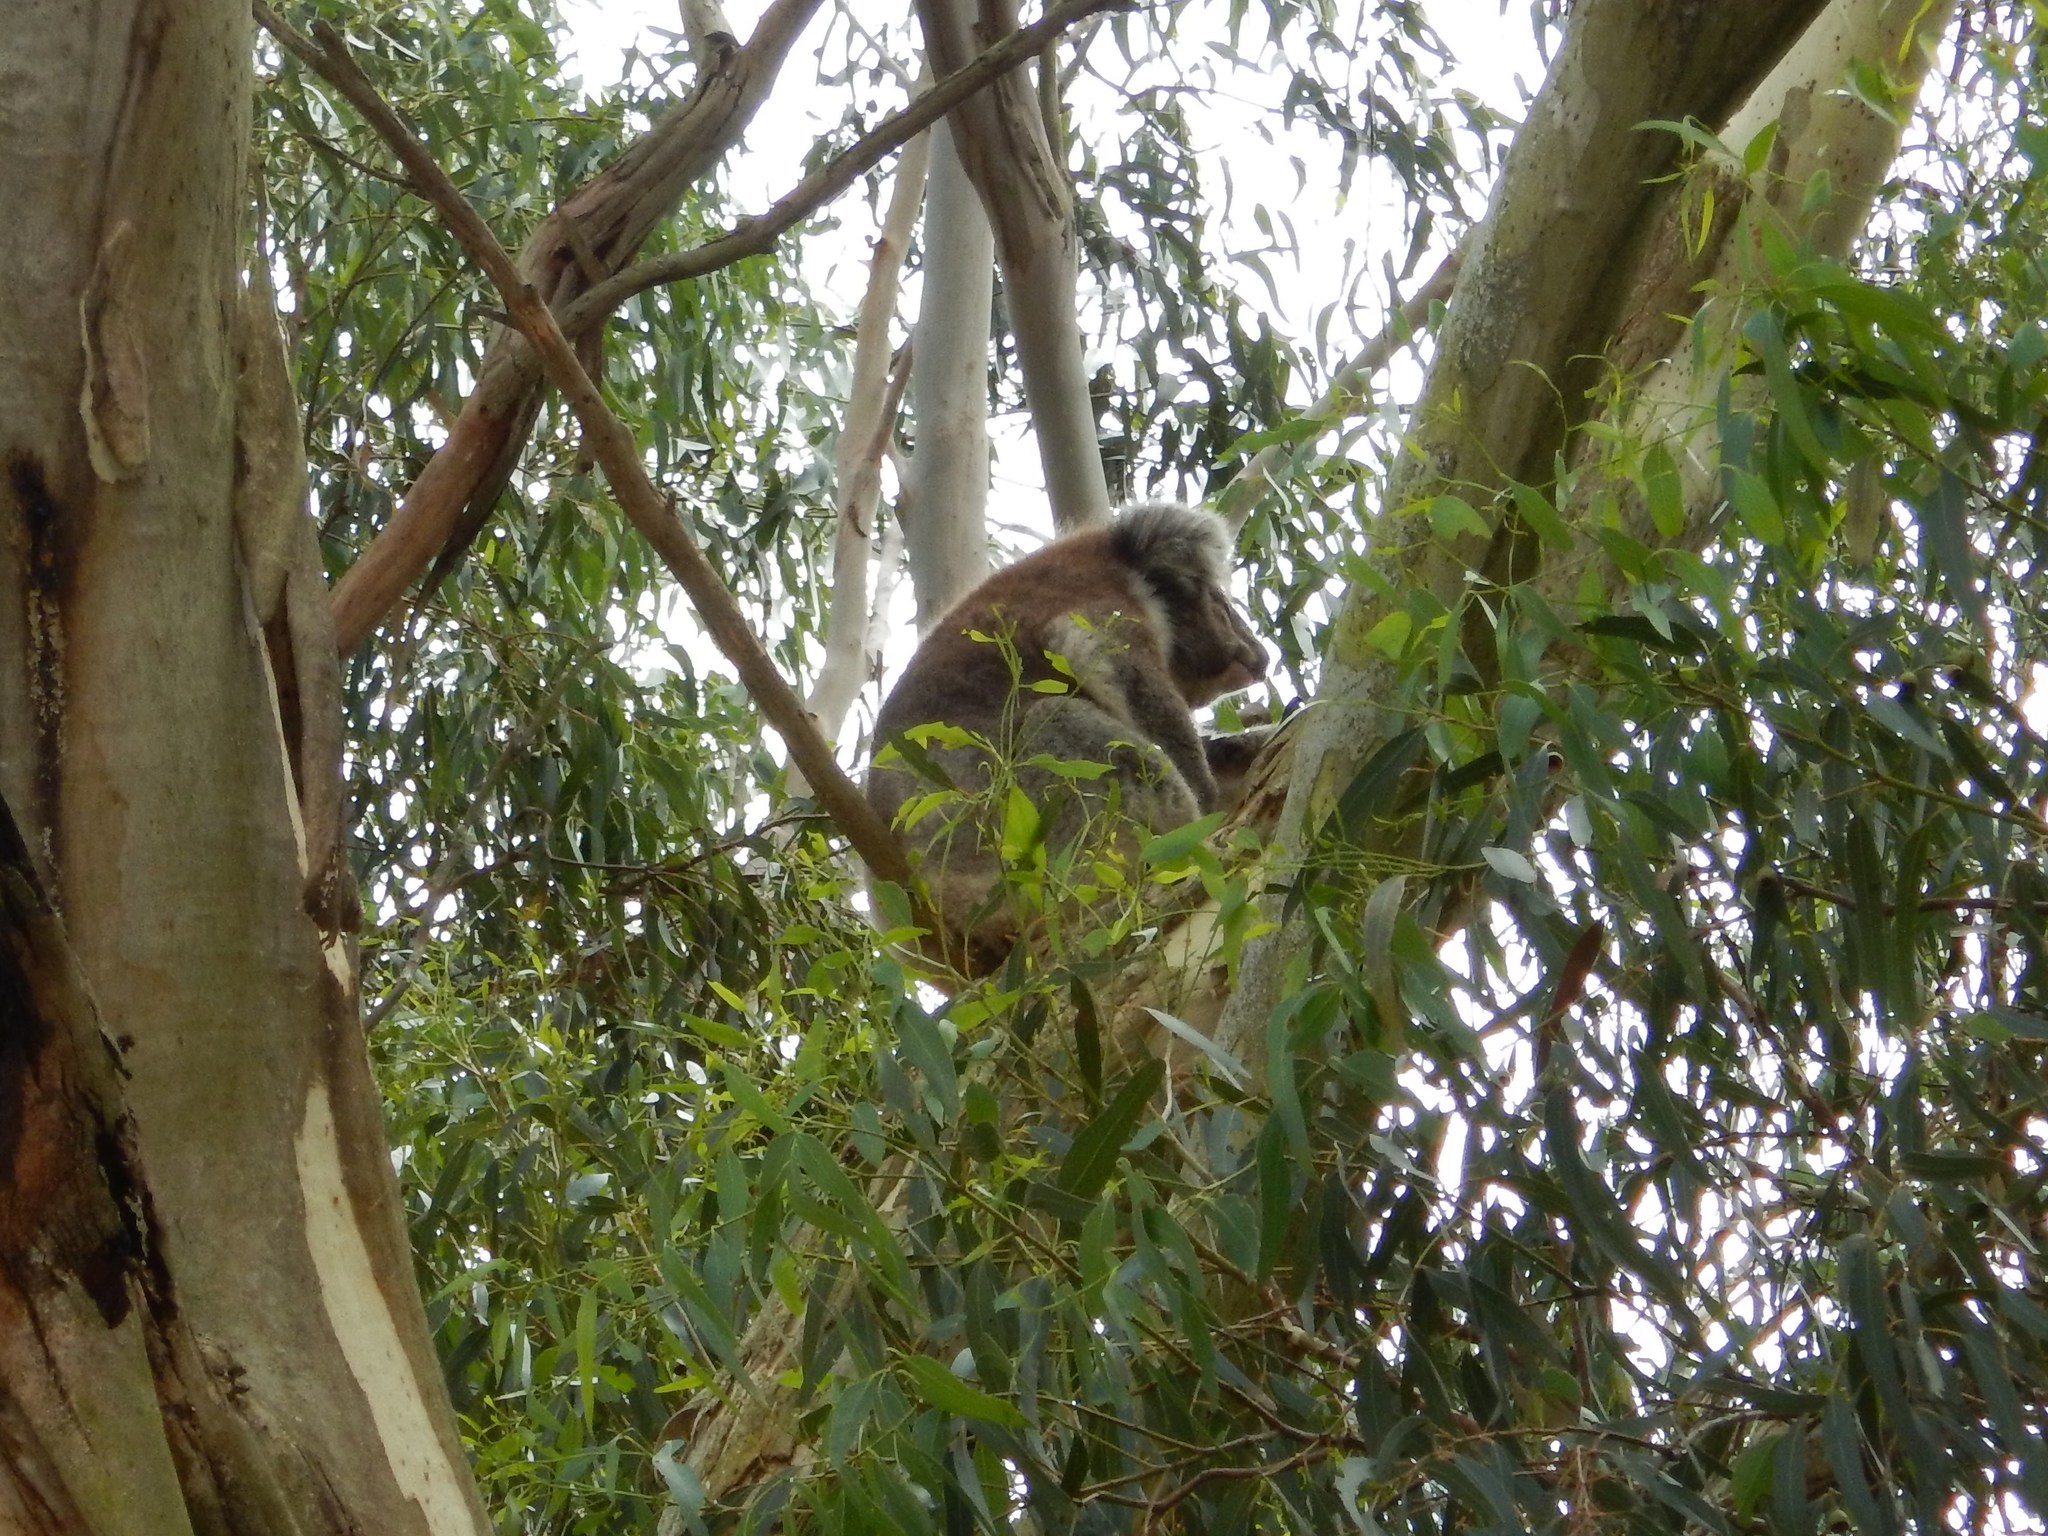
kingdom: Animalia
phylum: Chordata
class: Mammalia
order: Diprotodontia
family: Phascolarctidae
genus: Phascolarctos
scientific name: Phascolarctos cinereus
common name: Koala
